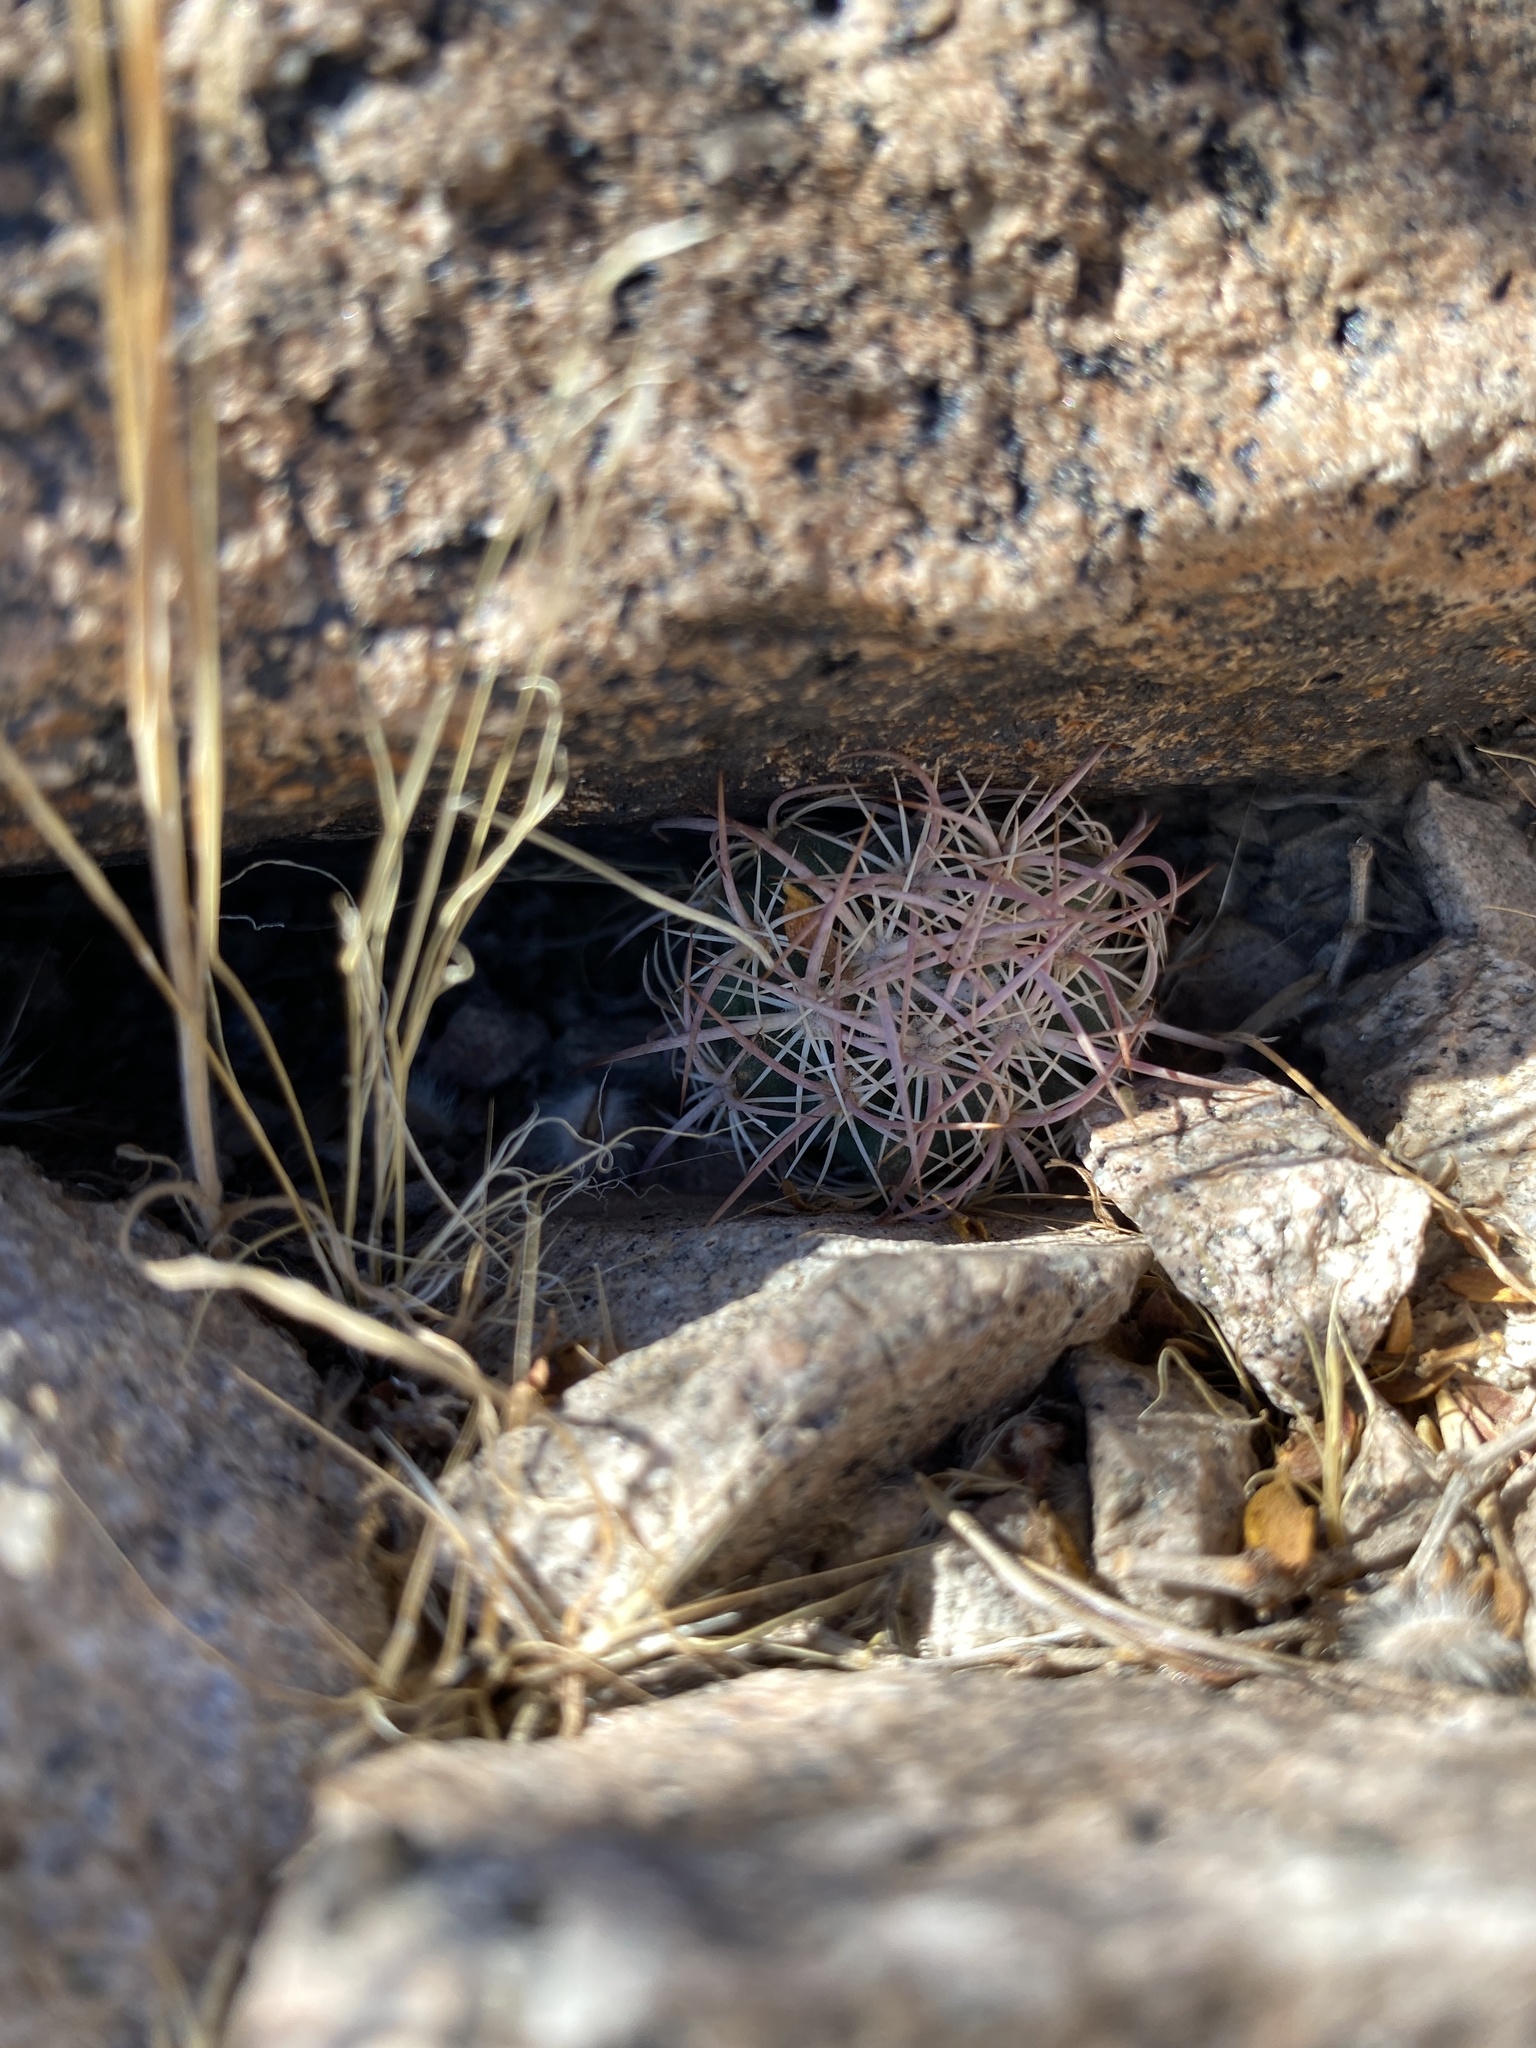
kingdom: Plantae
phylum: Tracheophyta
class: Magnoliopsida
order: Caryophyllales
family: Cactaceae
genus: Sclerocactus
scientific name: Sclerocactus johnsonii
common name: Eight-spine fishhook cactus
